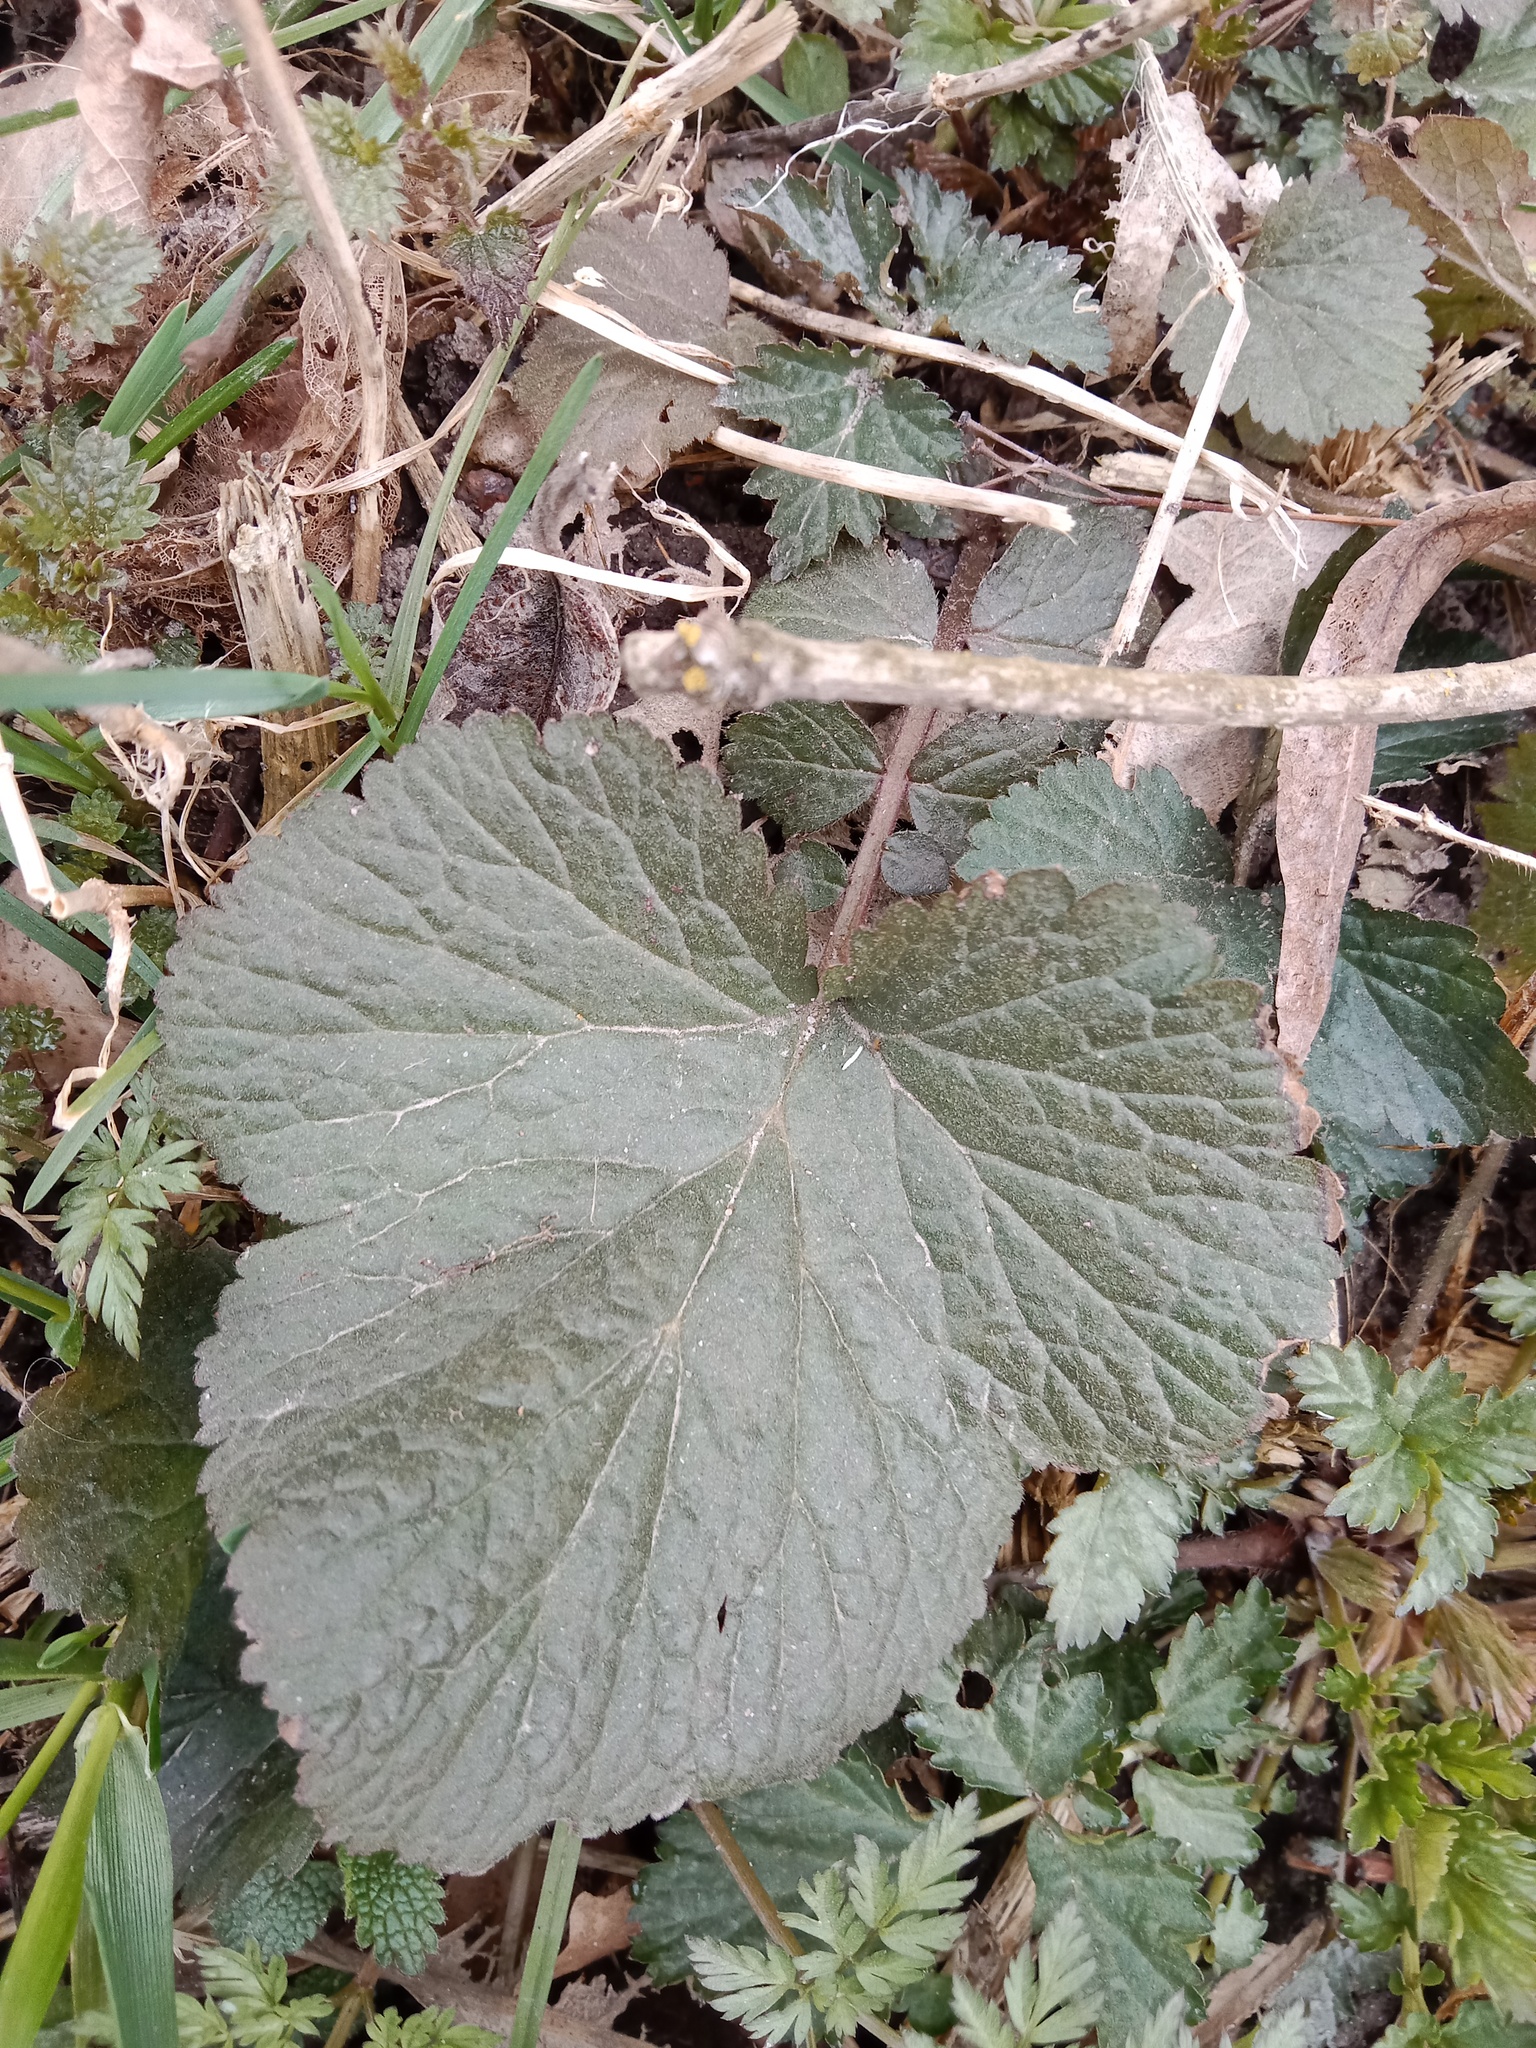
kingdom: Plantae
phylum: Tracheophyta
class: Magnoliopsida
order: Rosales
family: Rosaceae
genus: Geum
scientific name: Geum urbanum
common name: Wood avens
